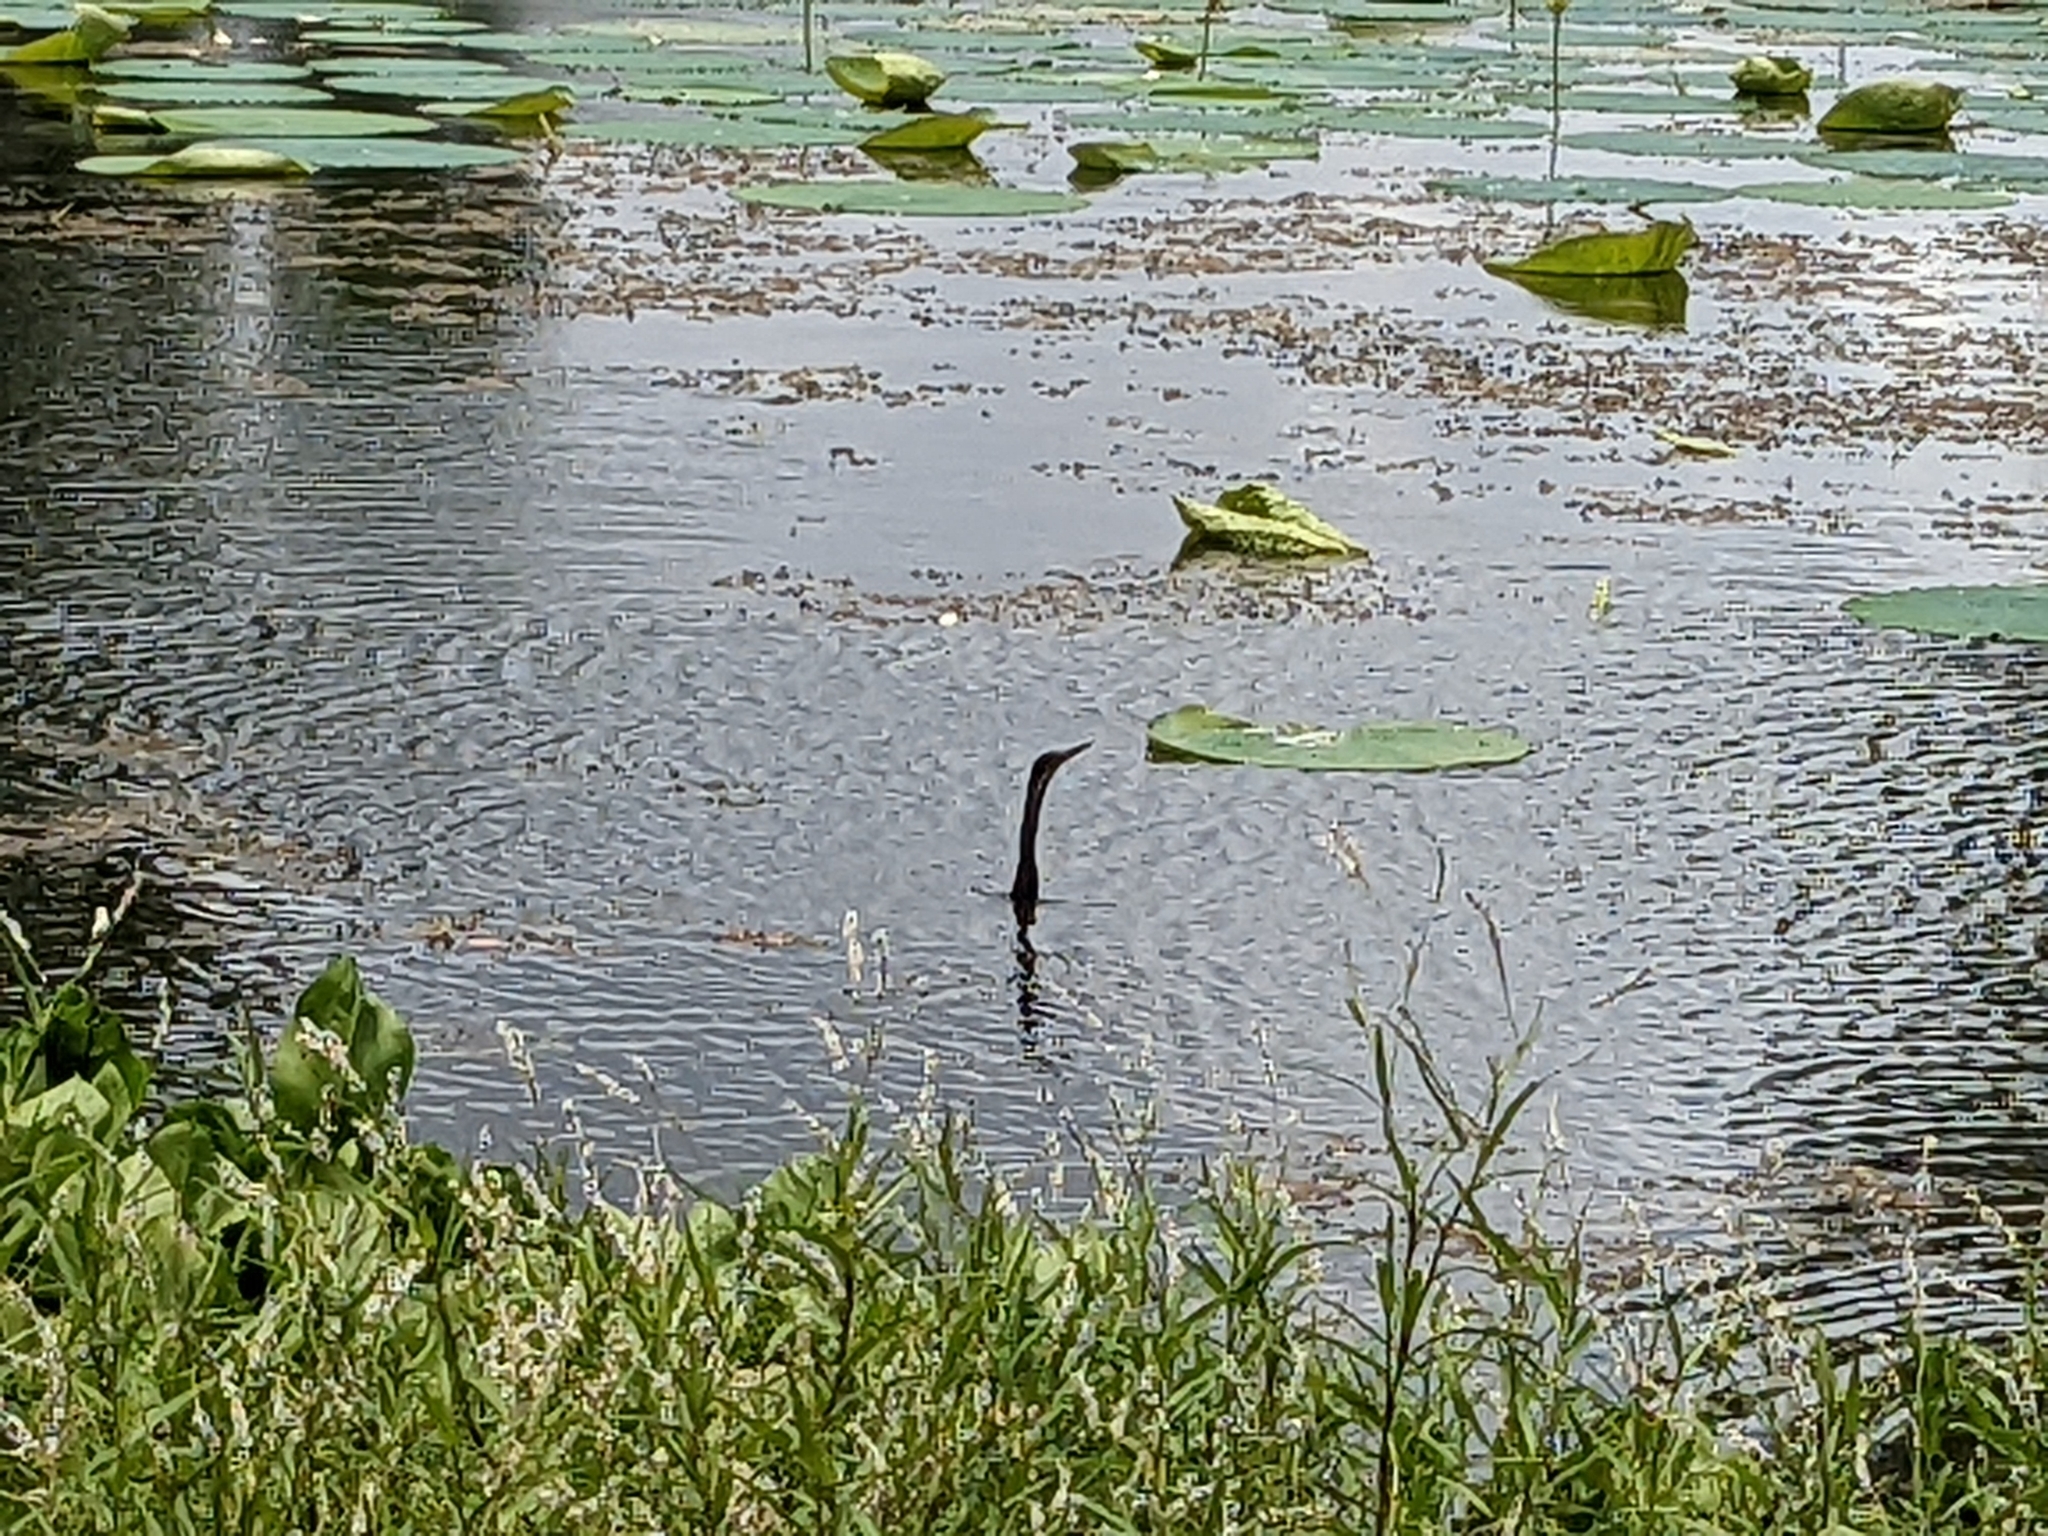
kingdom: Animalia
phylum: Chordata
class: Aves
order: Suliformes
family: Anhingidae
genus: Anhinga
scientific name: Anhinga anhinga
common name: Anhinga
